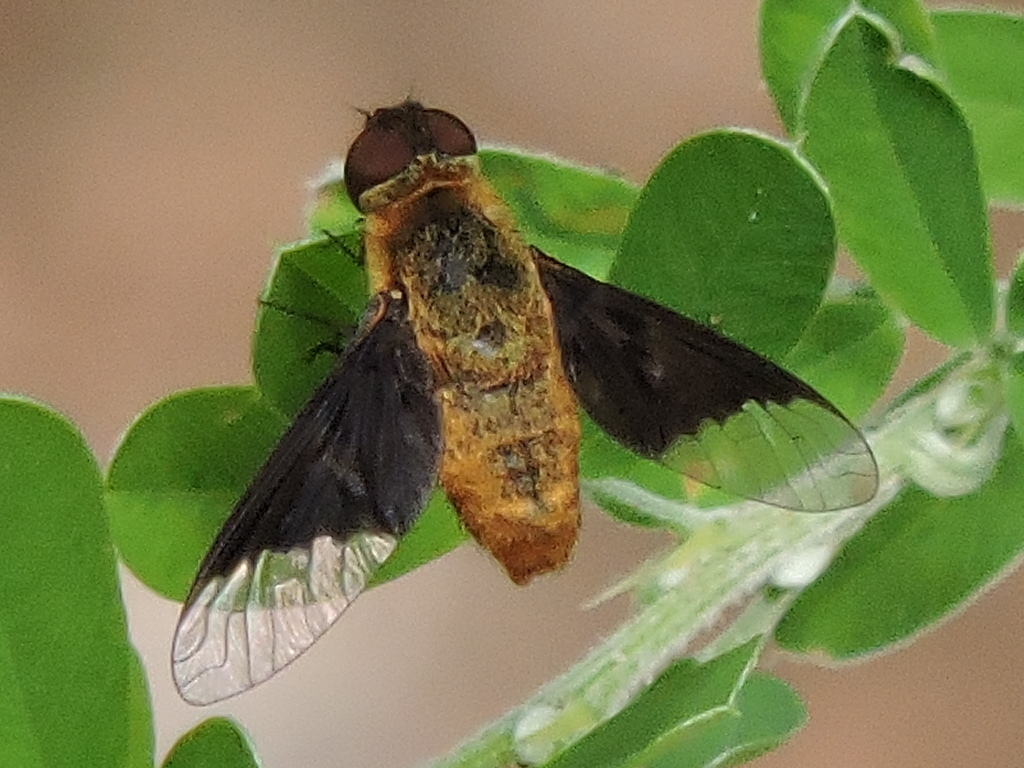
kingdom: Animalia
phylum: Arthropoda
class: Insecta
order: Diptera
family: Bombyliidae
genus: Chrysanthrax
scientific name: Chrysanthrax cypris
